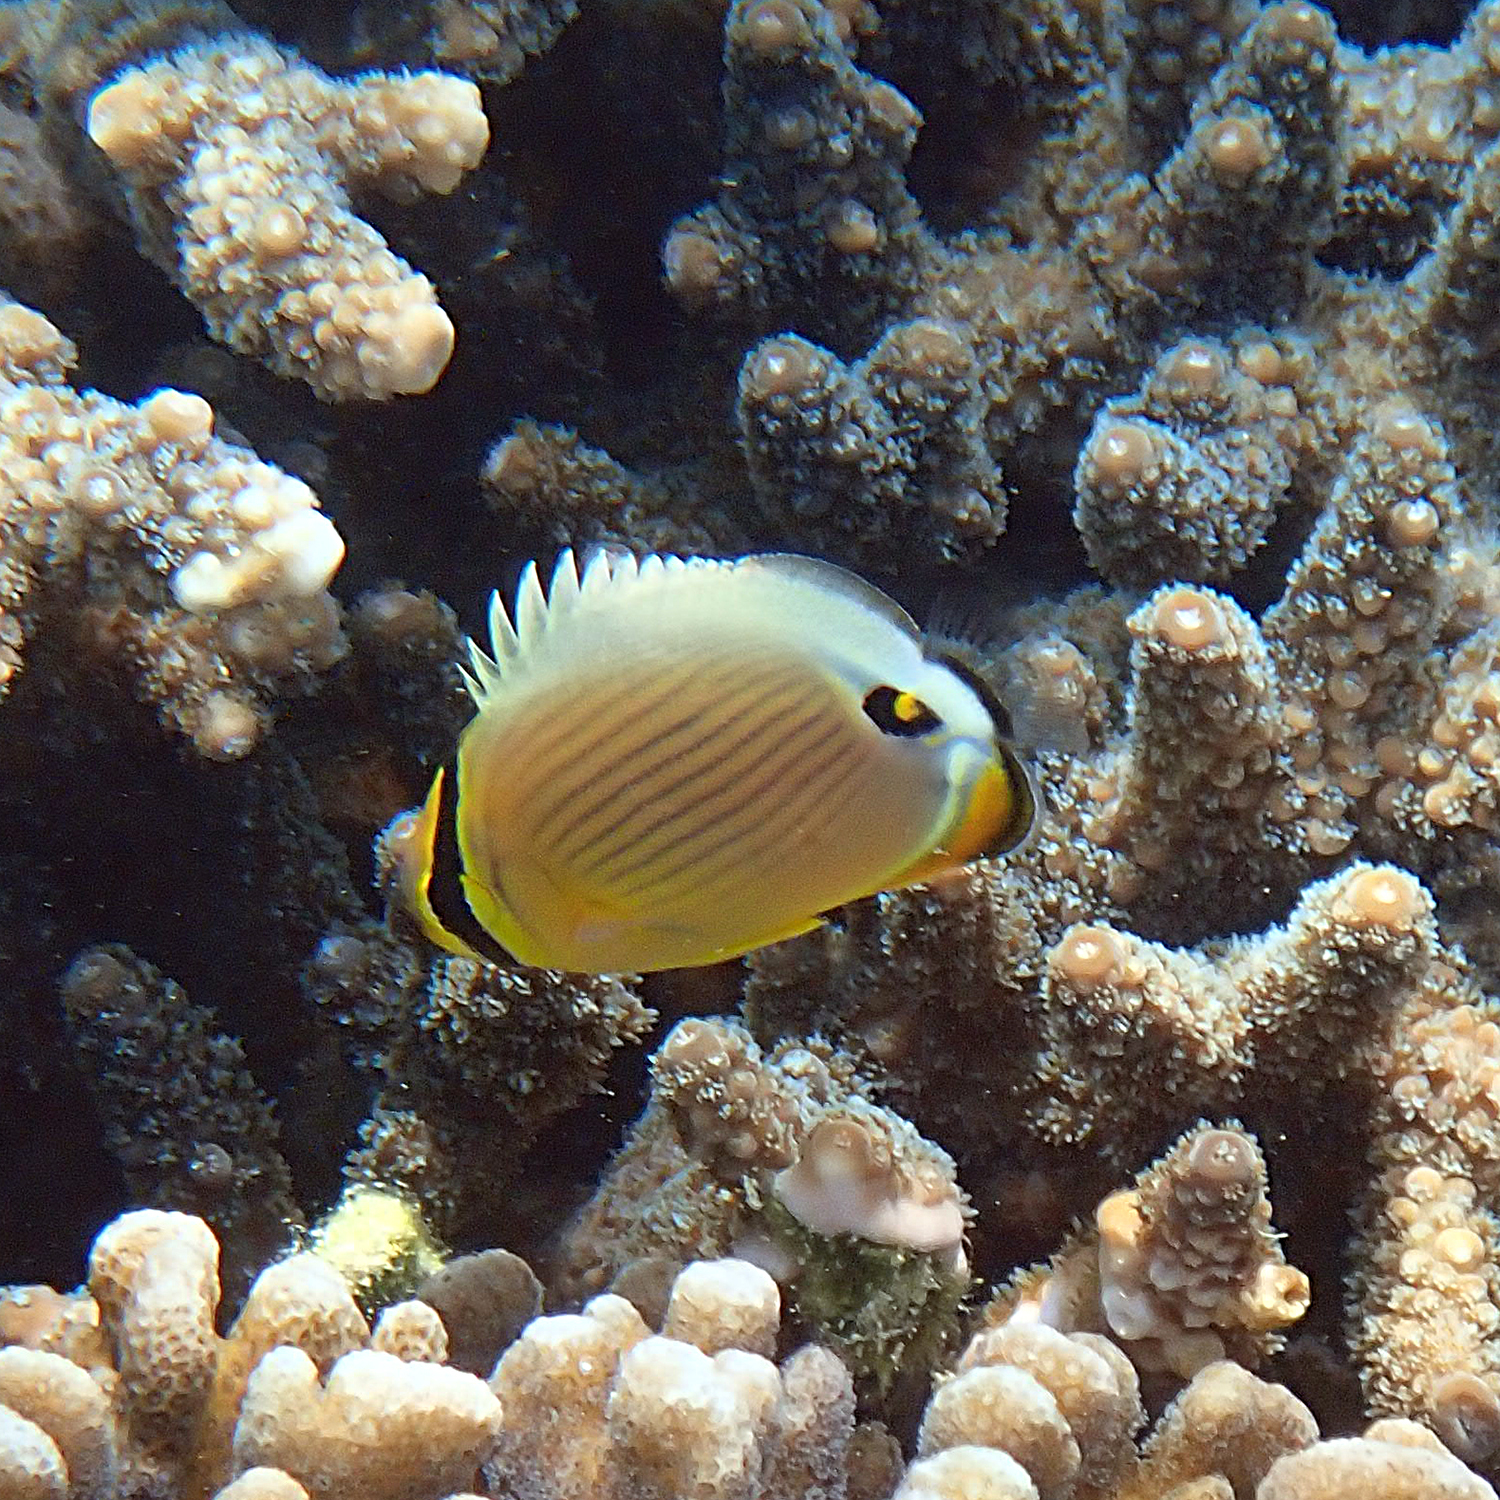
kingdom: Animalia
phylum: Chordata
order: Perciformes
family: Chaetodontidae
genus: Chaetodon
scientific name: Chaetodon lunulatus
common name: Redfin butterflyfish
